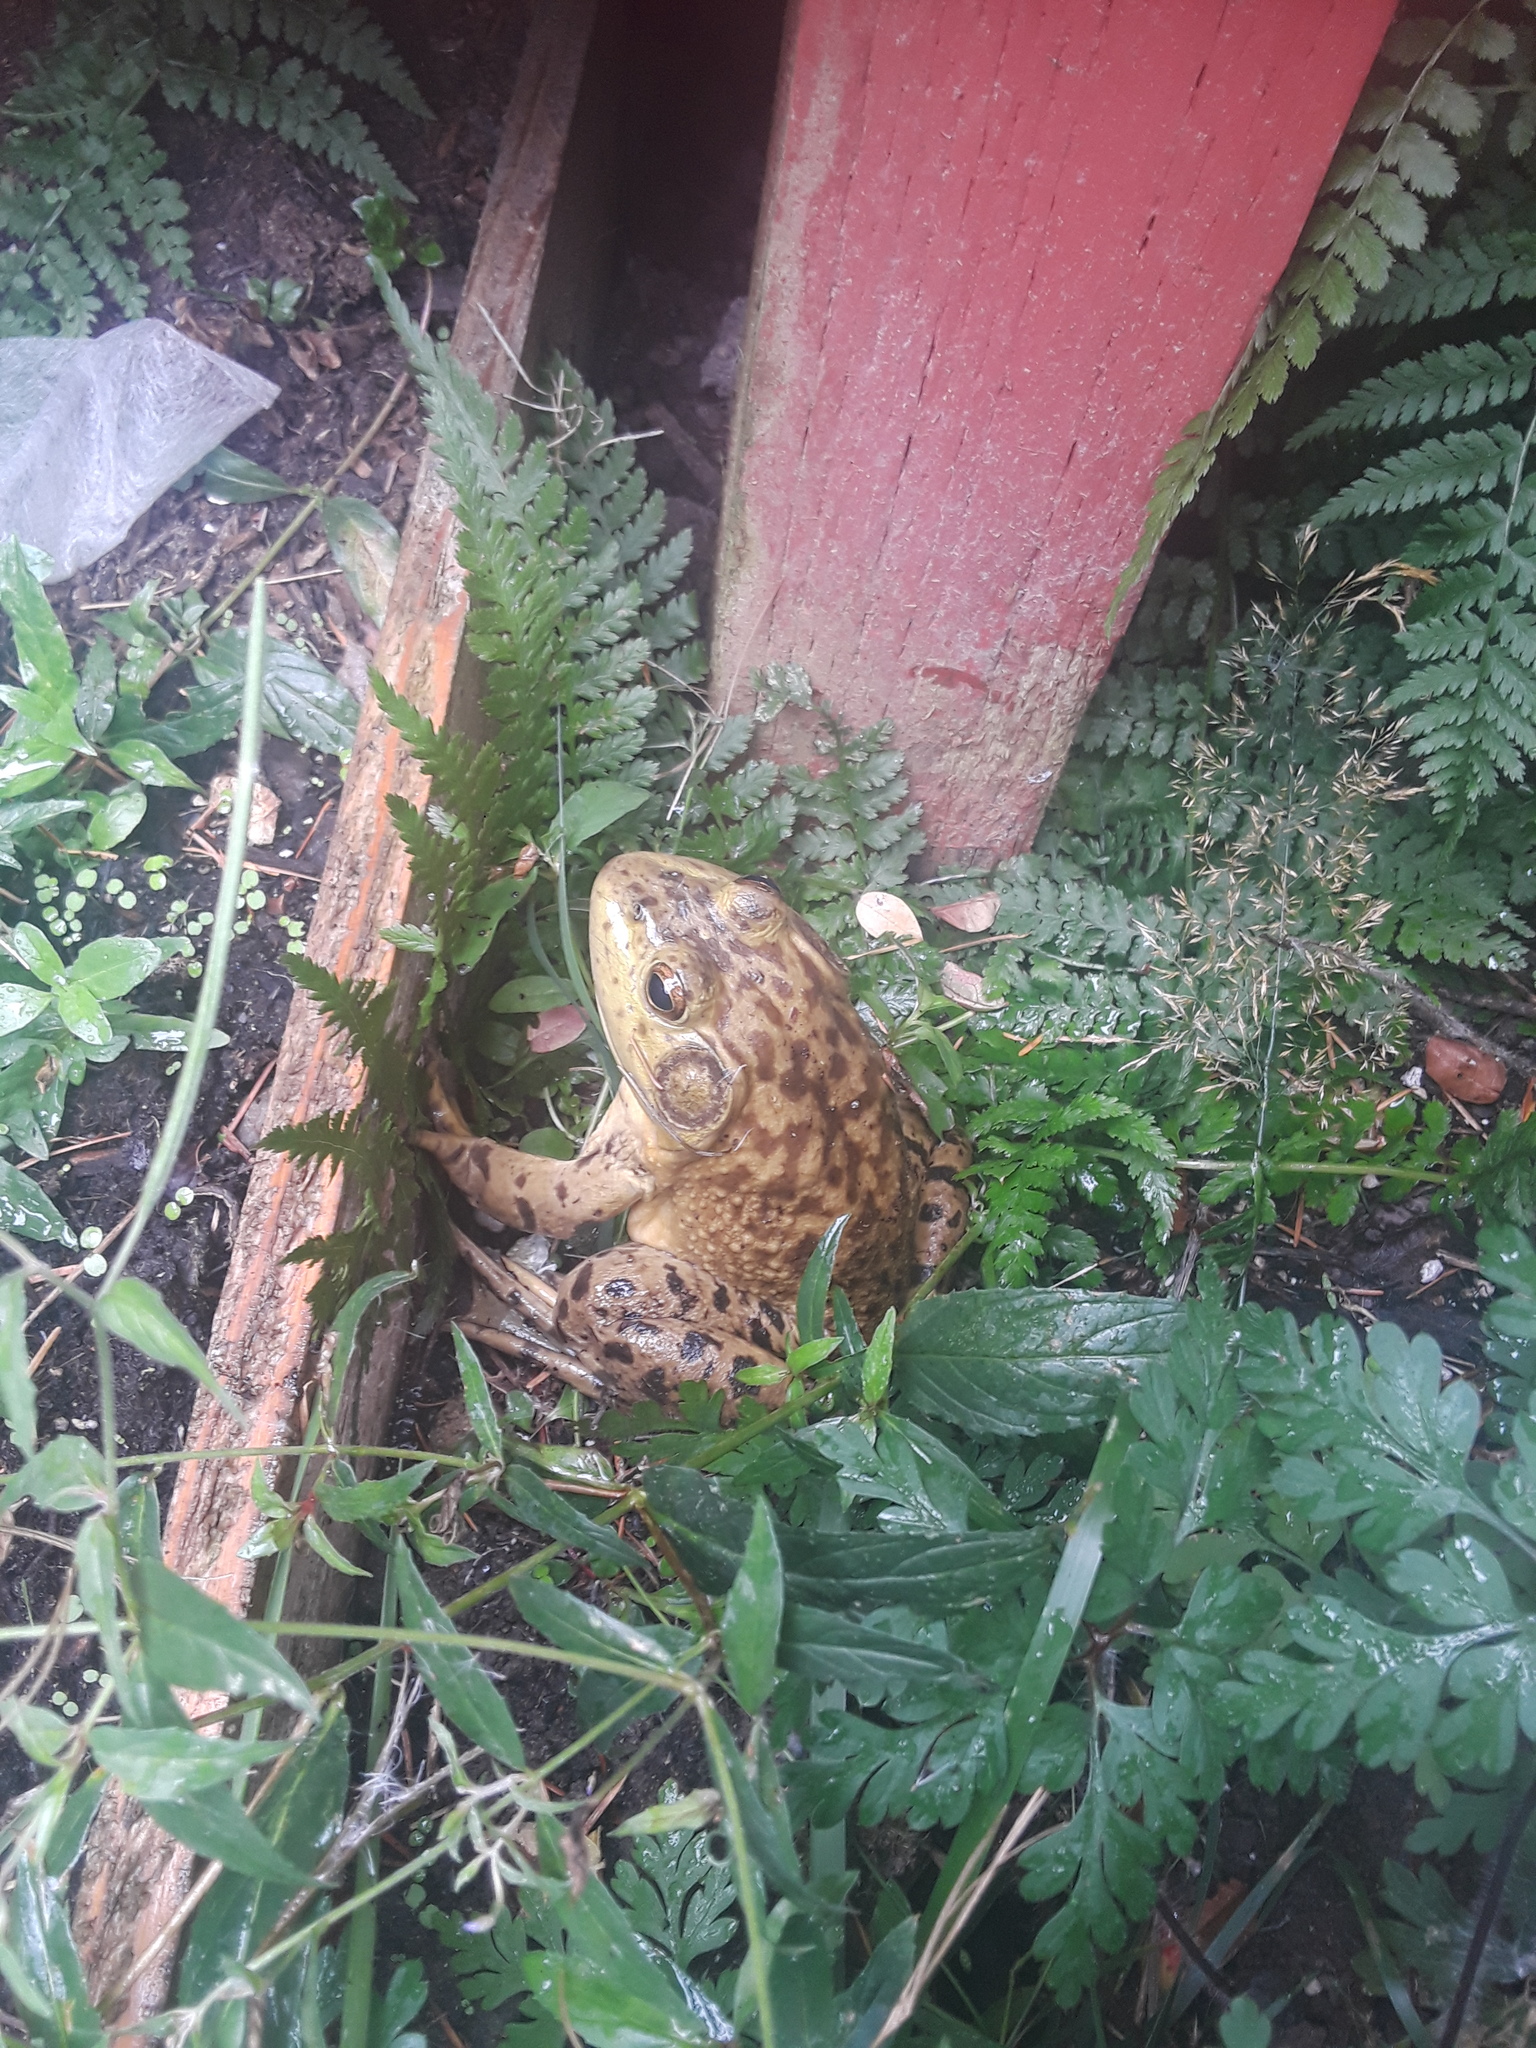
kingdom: Animalia
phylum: Chordata
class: Amphibia
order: Anura
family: Ranidae
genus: Lithobates
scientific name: Lithobates catesbeianus
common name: American bullfrog
